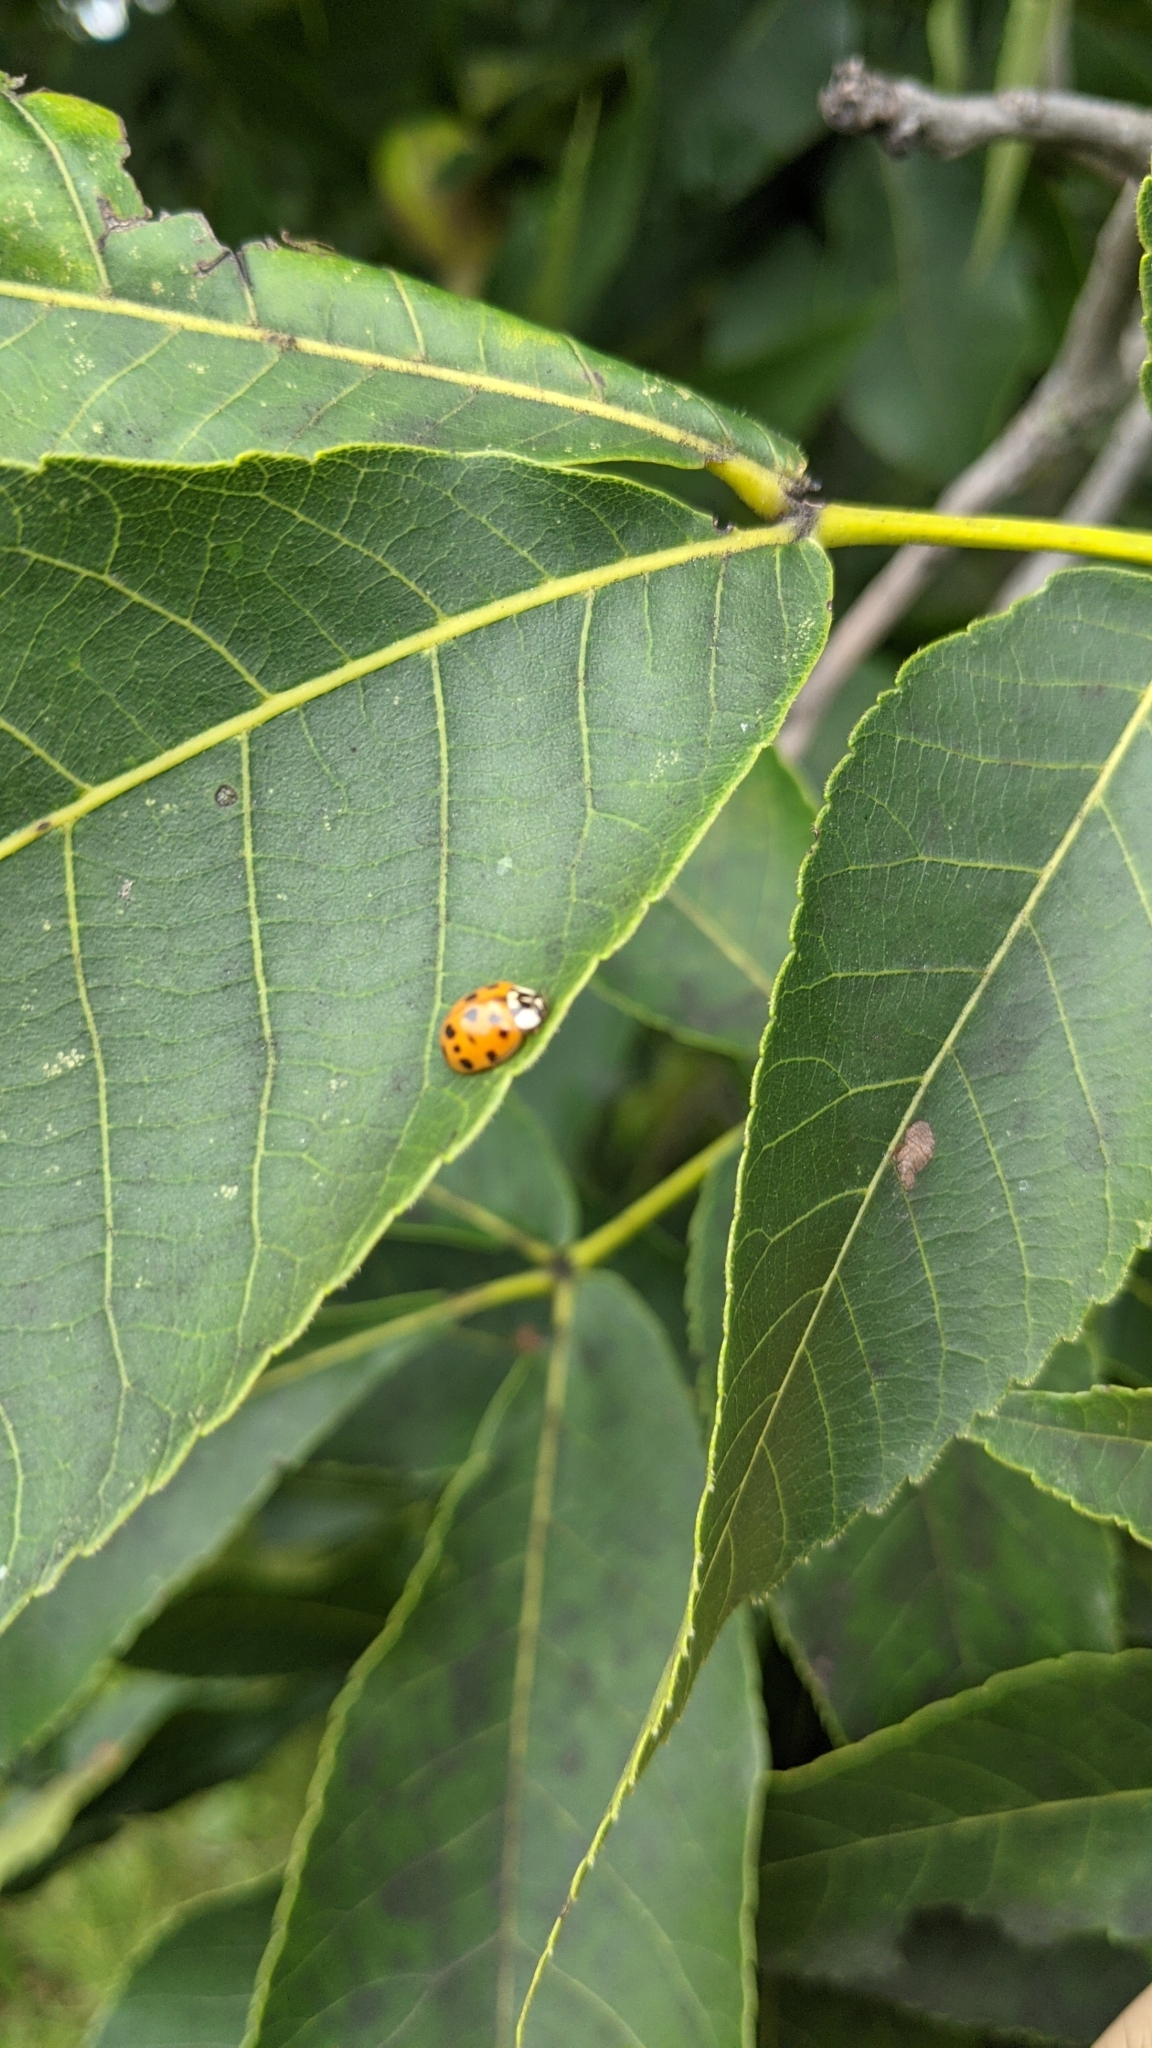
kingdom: Animalia
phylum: Arthropoda
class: Insecta
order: Coleoptera
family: Coccinellidae
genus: Harmonia
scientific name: Harmonia axyridis
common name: Harlequin ladybird
